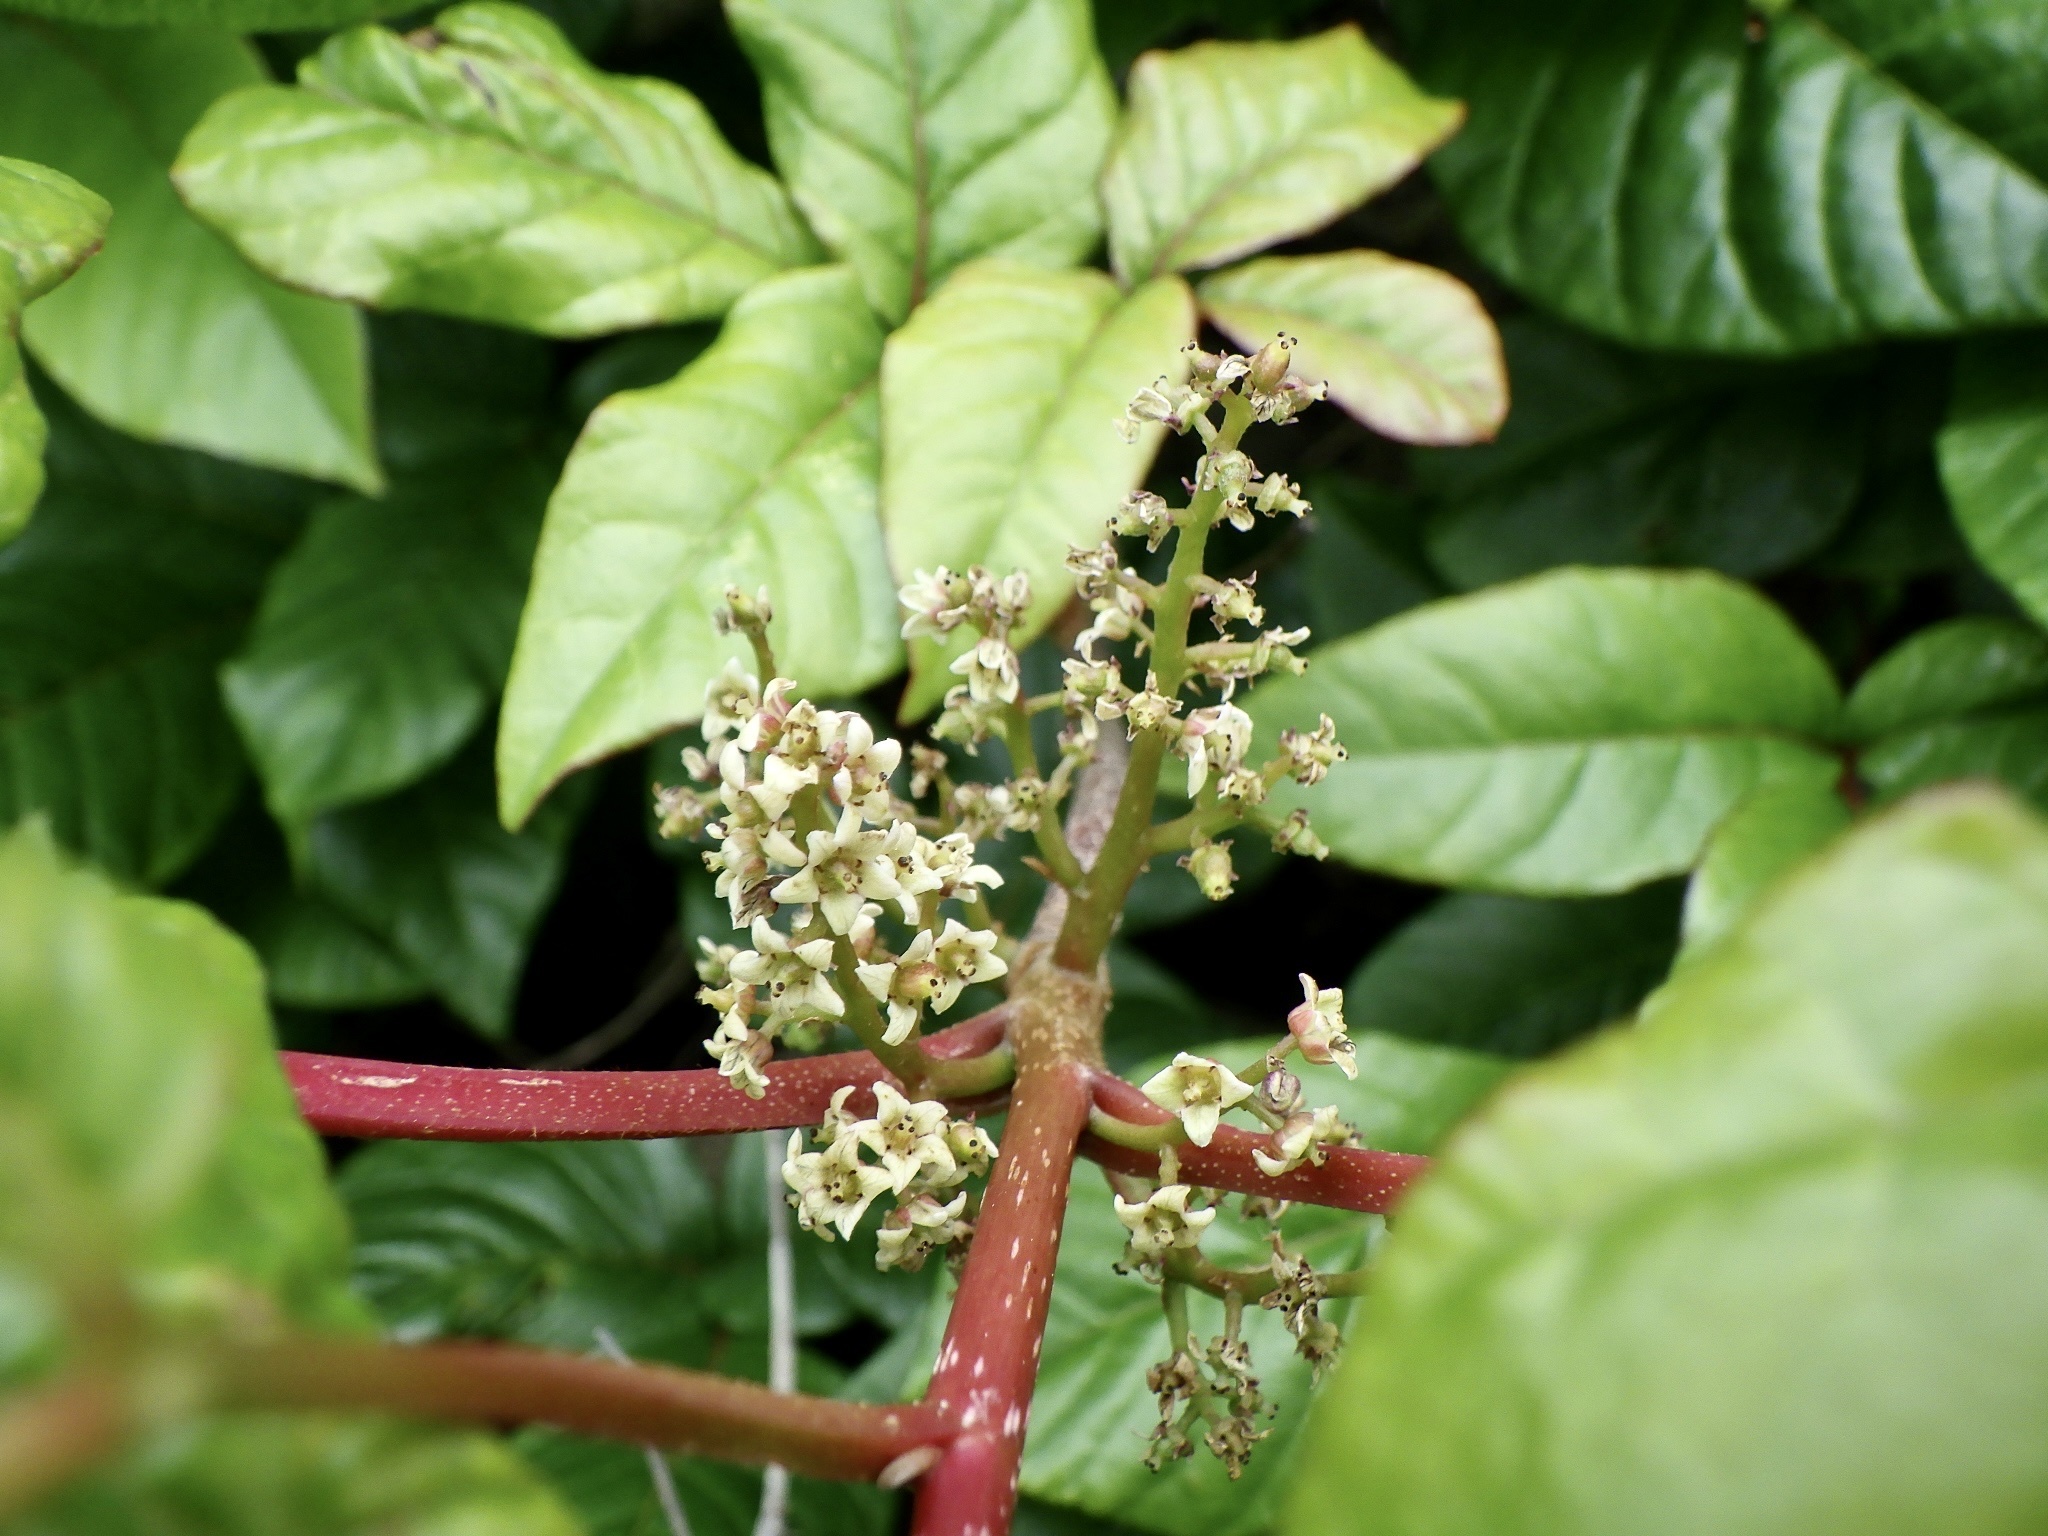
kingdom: Plantae
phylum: Tracheophyta
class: Magnoliopsida
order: Sapindales
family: Anacardiaceae
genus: Toxicodendron
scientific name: Toxicodendron orientale
